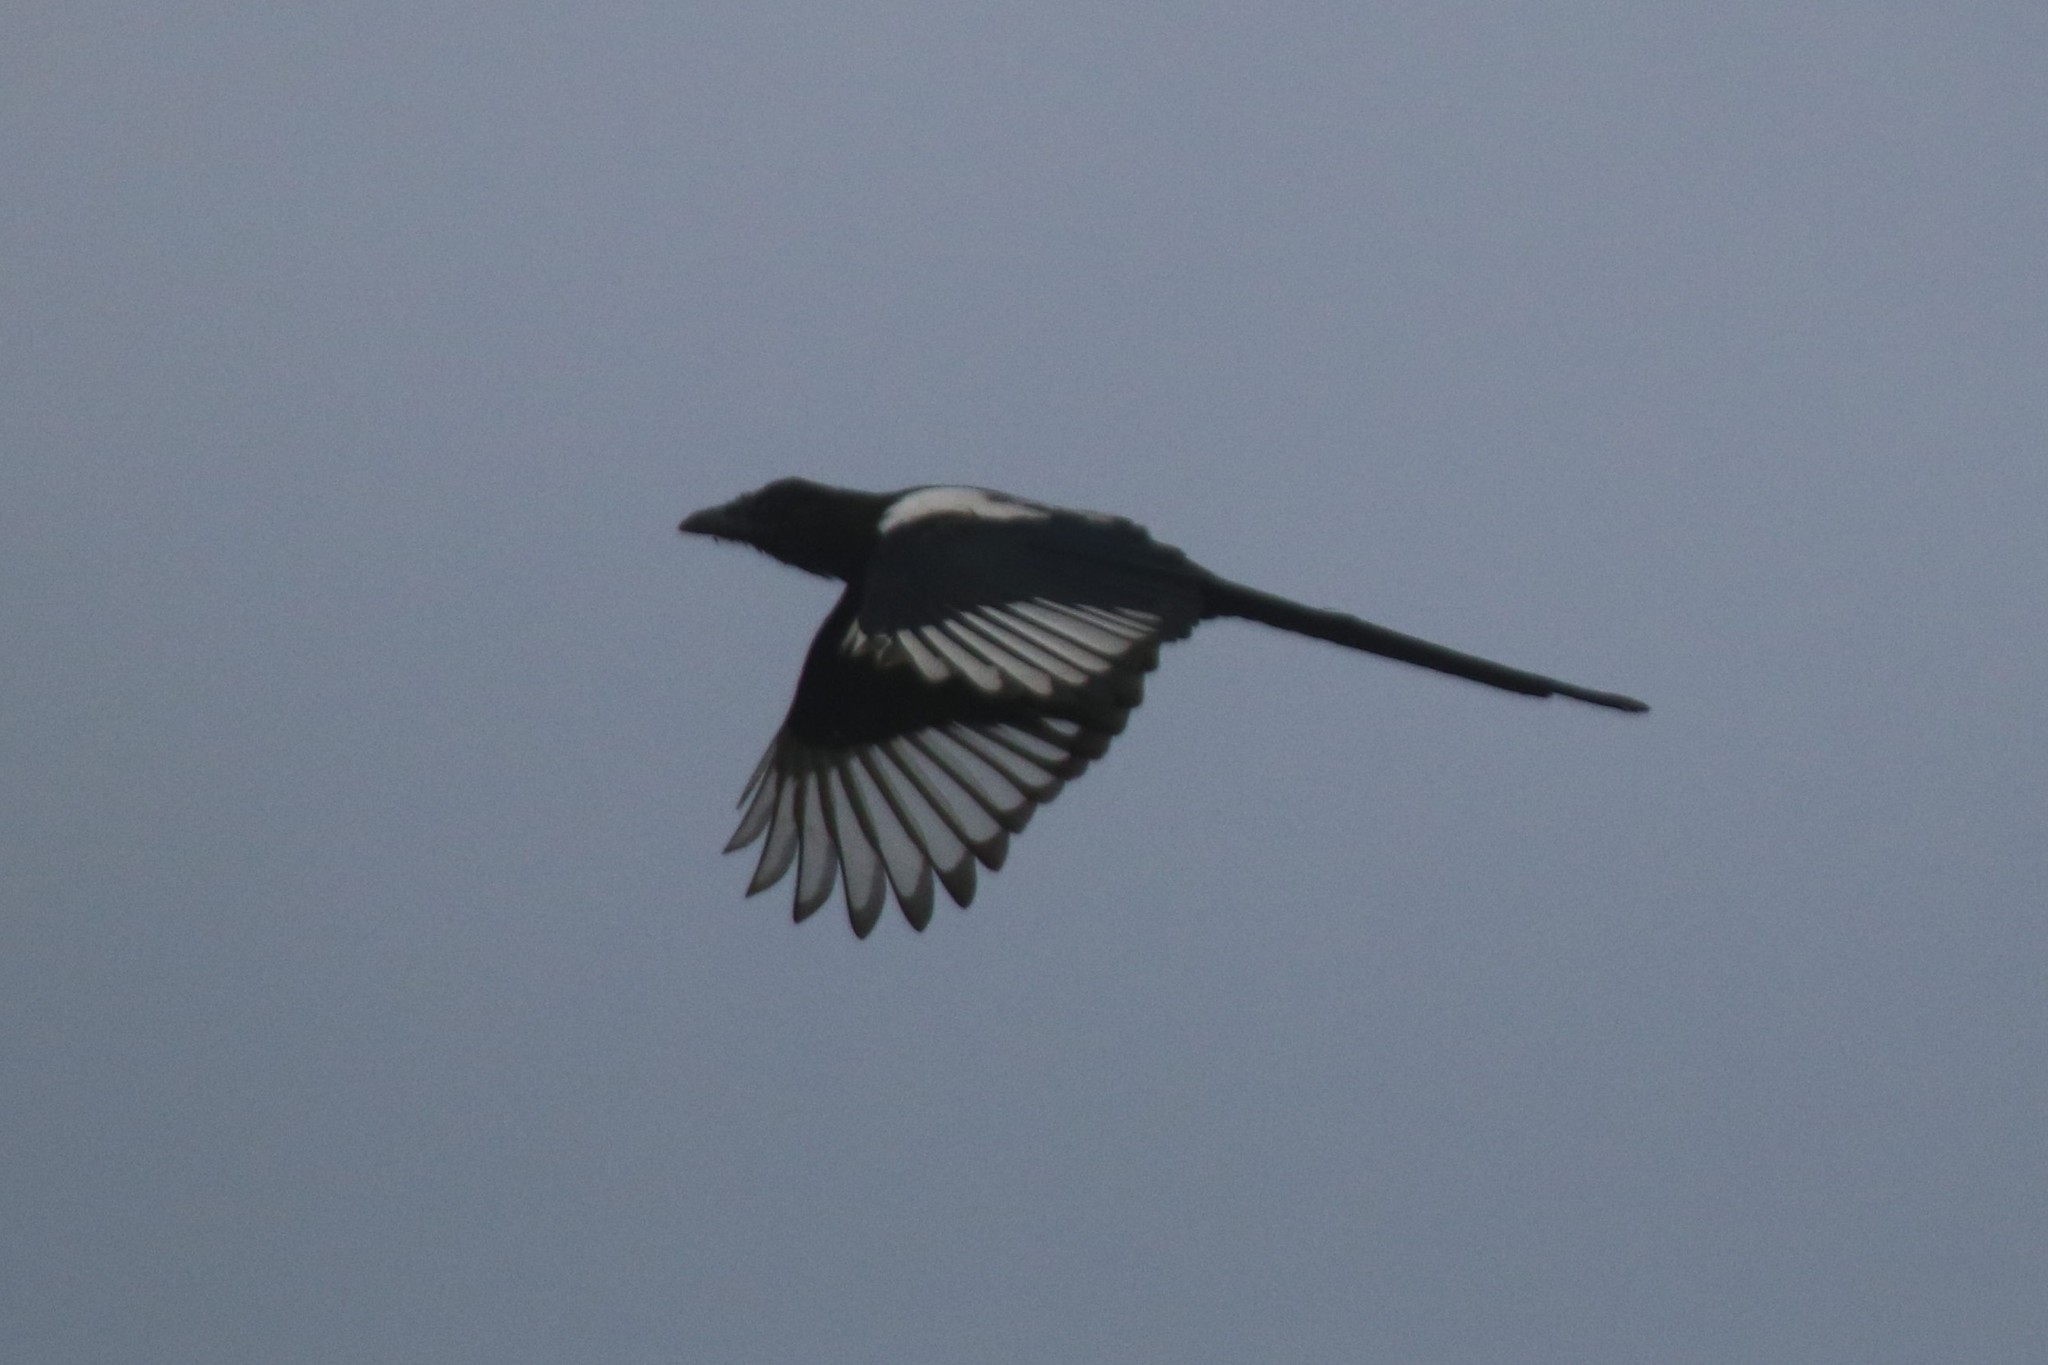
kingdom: Animalia
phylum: Chordata
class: Aves
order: Passeriformes
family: Corvidae
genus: Pica
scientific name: Pica pica
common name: Eurasian magpie
